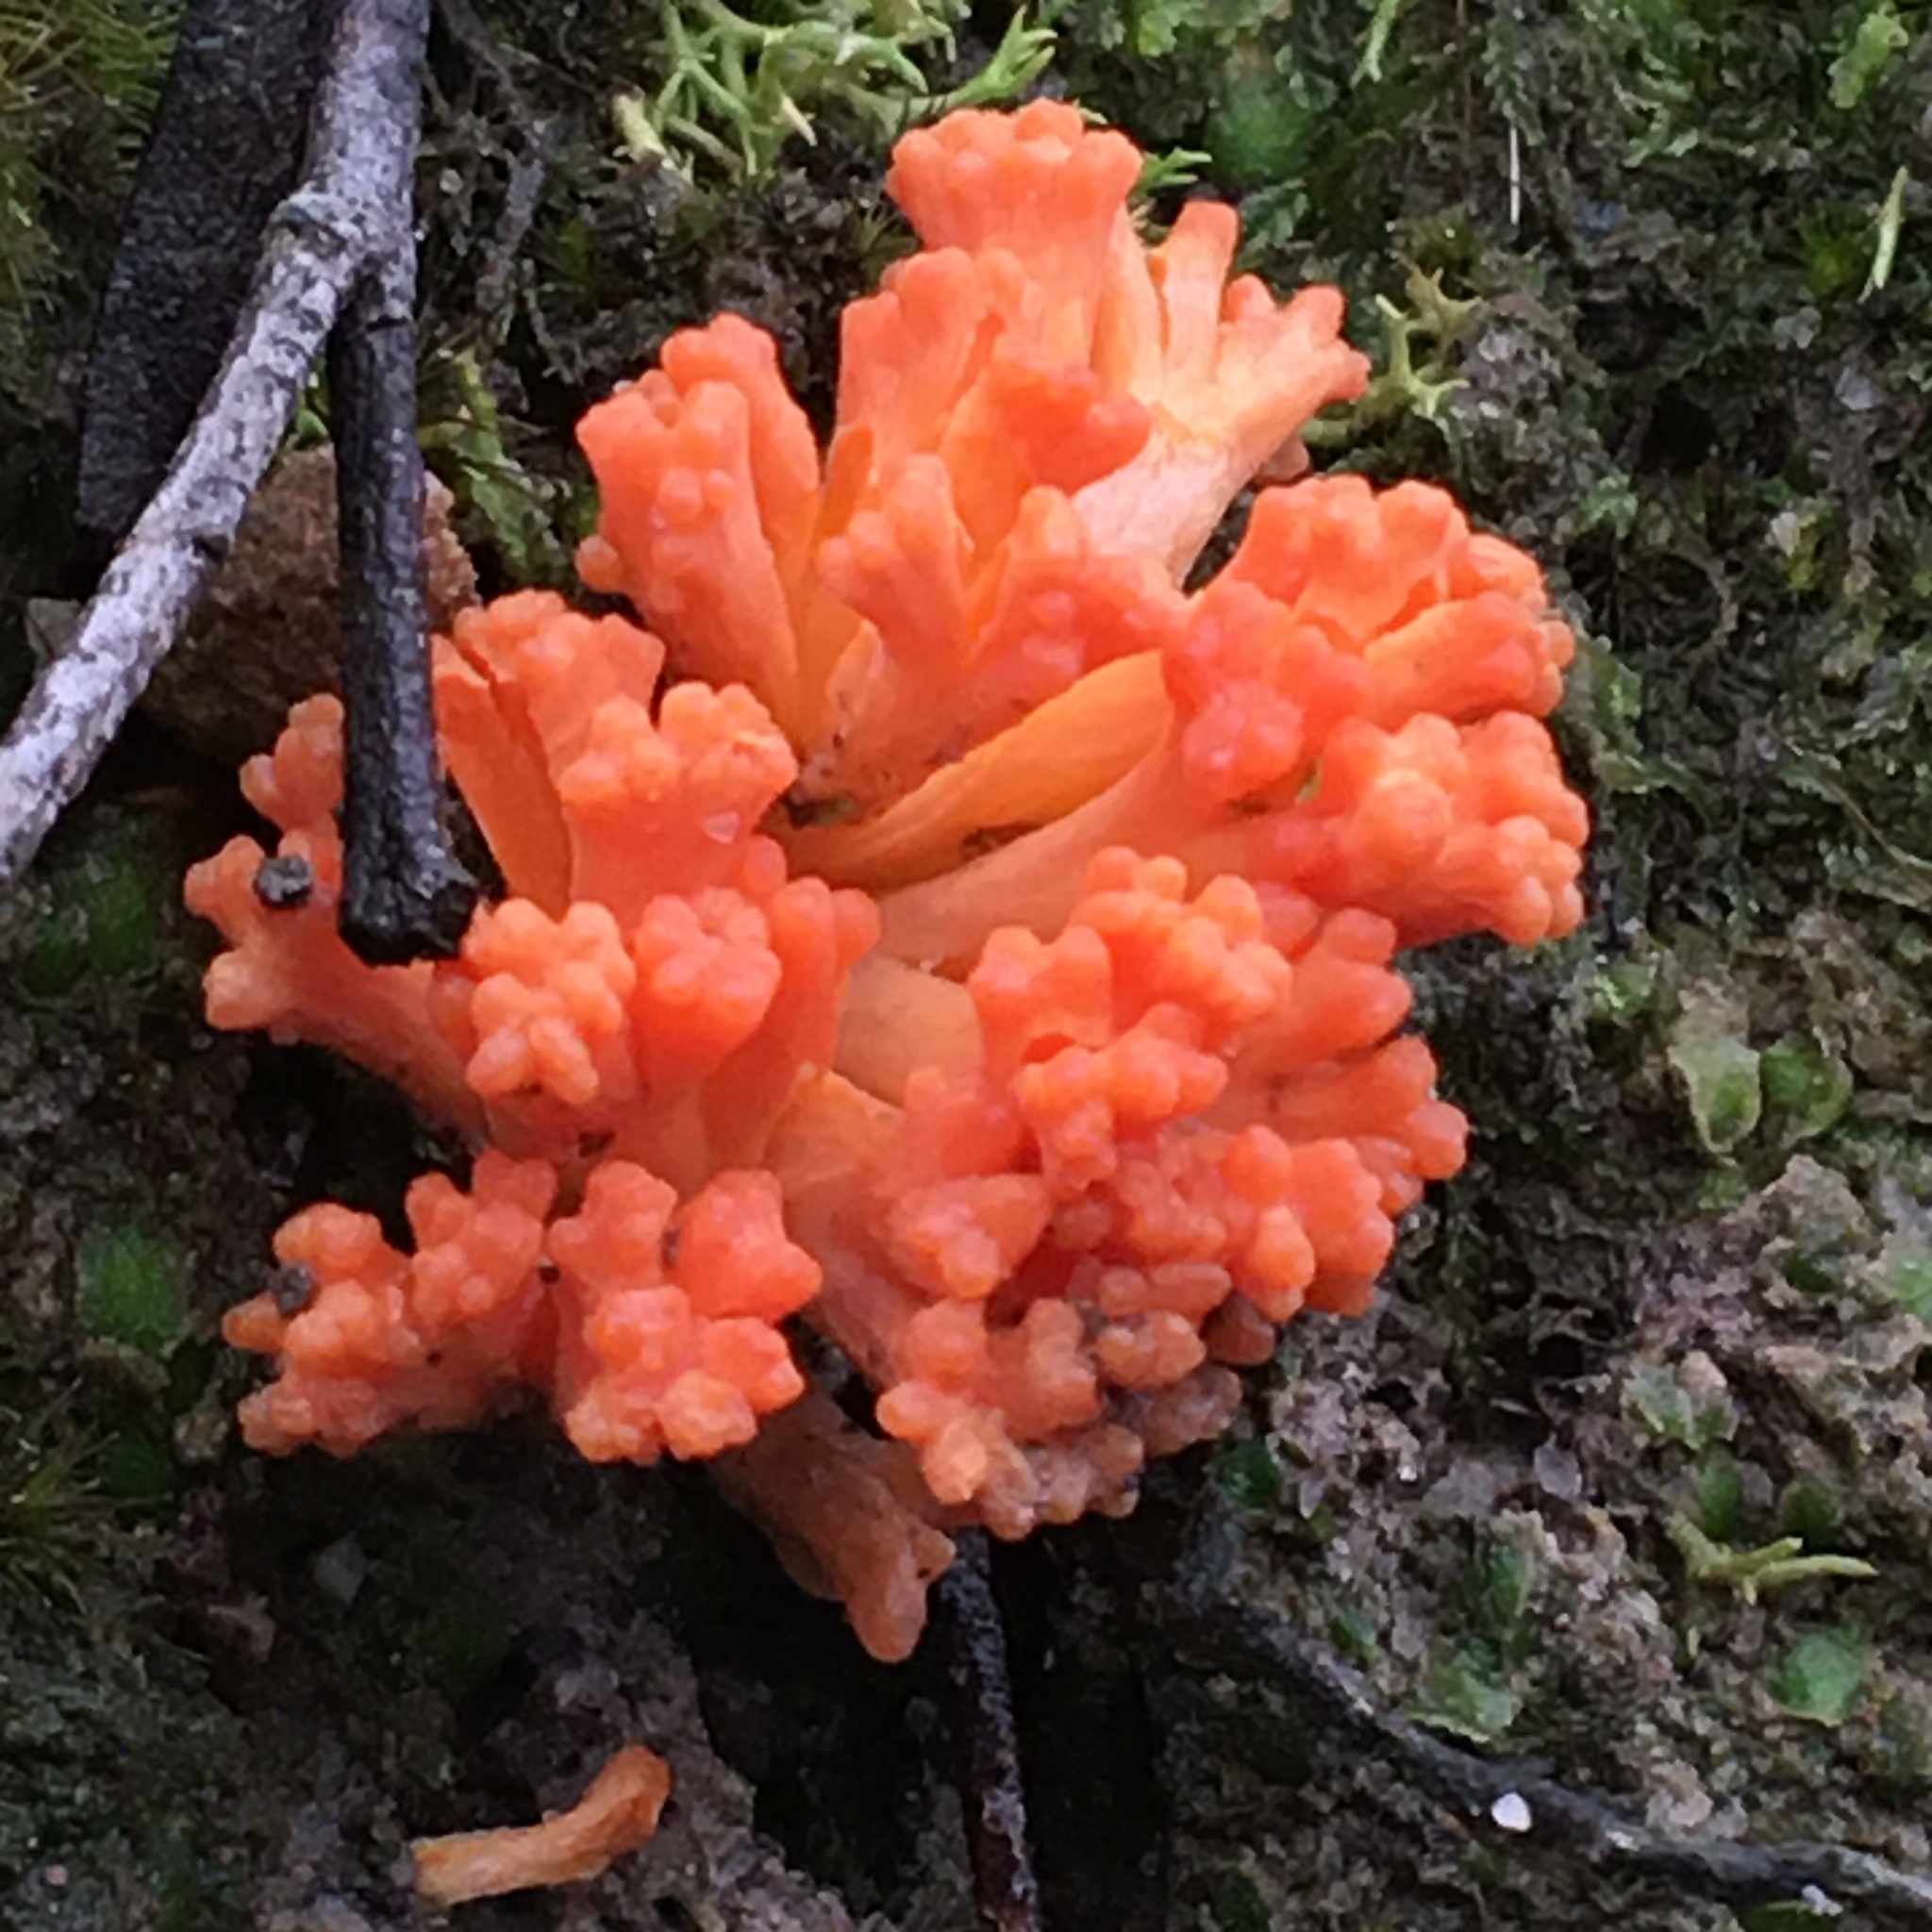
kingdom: Fungi
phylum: Basidiomycota
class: Agaricomycetes
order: Gomphales
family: Gomphaceae
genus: Ramaria
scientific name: Ramaria capitata
